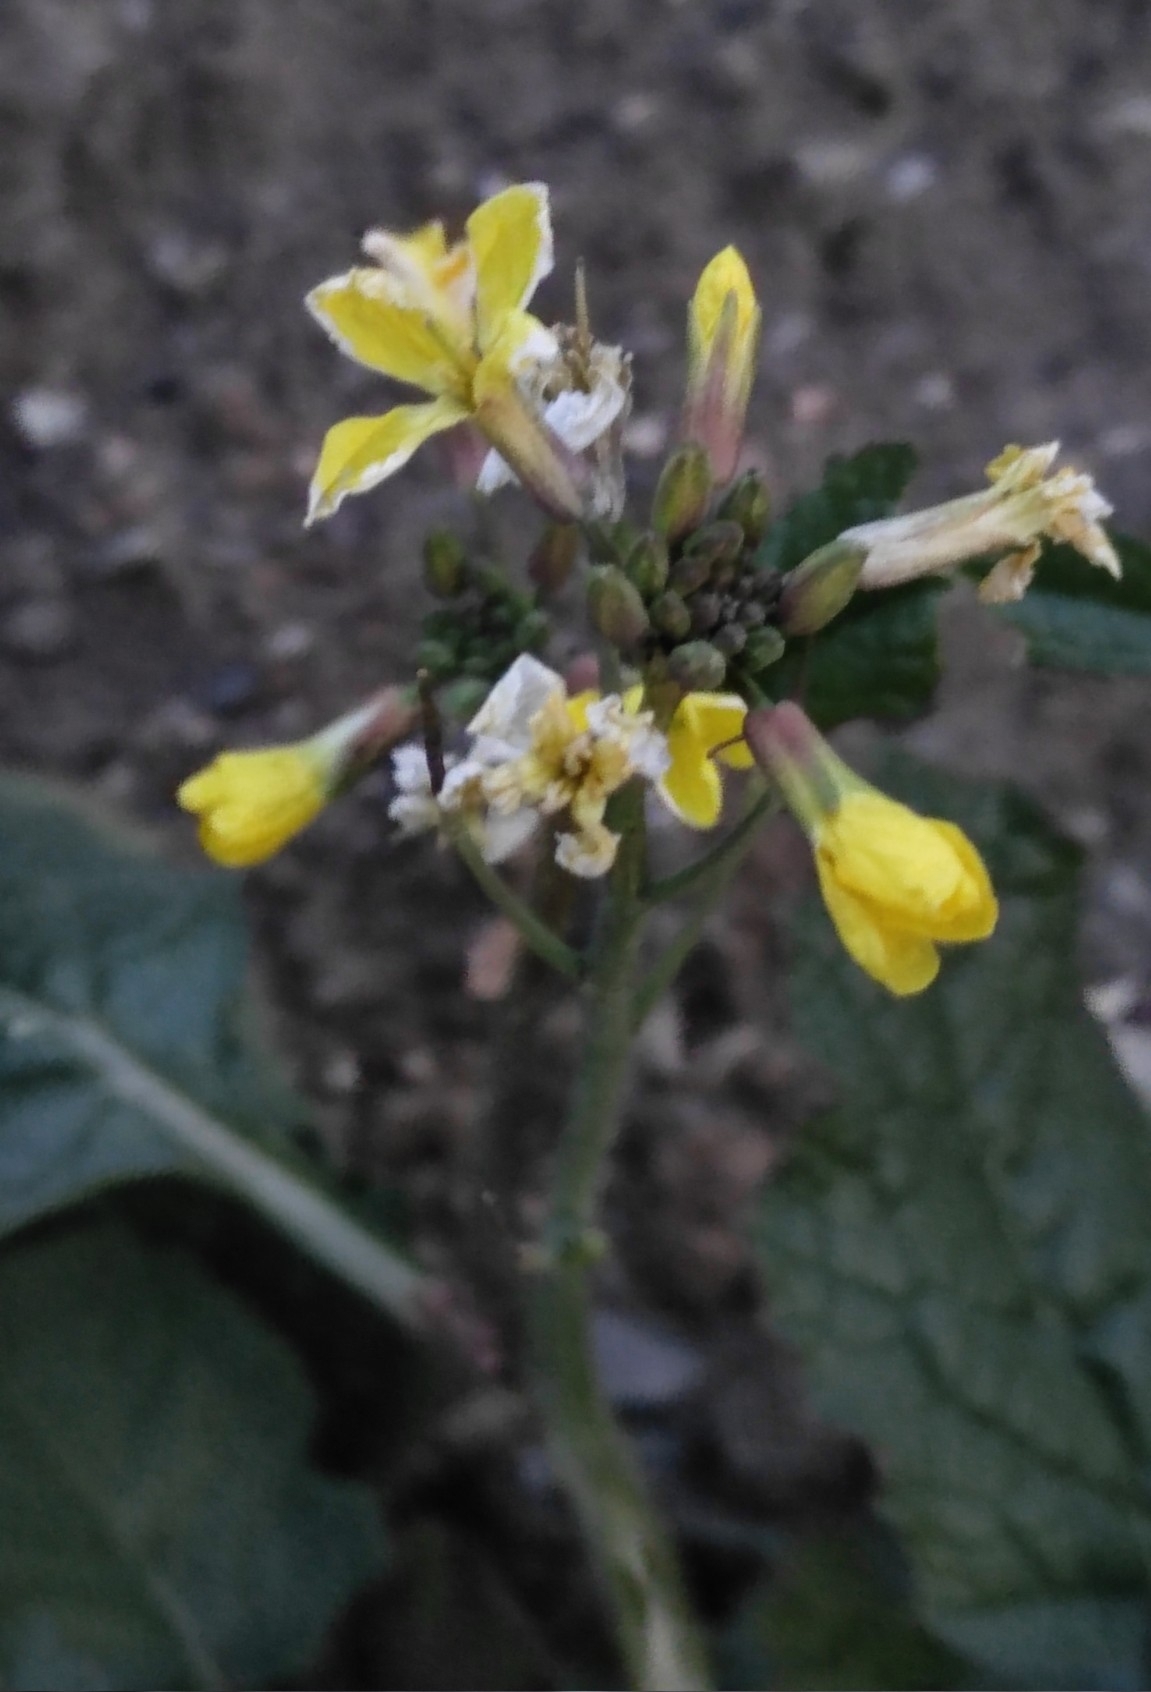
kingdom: Plantae
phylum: Tracheophyta
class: Magnoliopsida
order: Brassicales
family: Brassicaceae
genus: Raphanus
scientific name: Raphanus raphanistrum
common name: Wild radish
